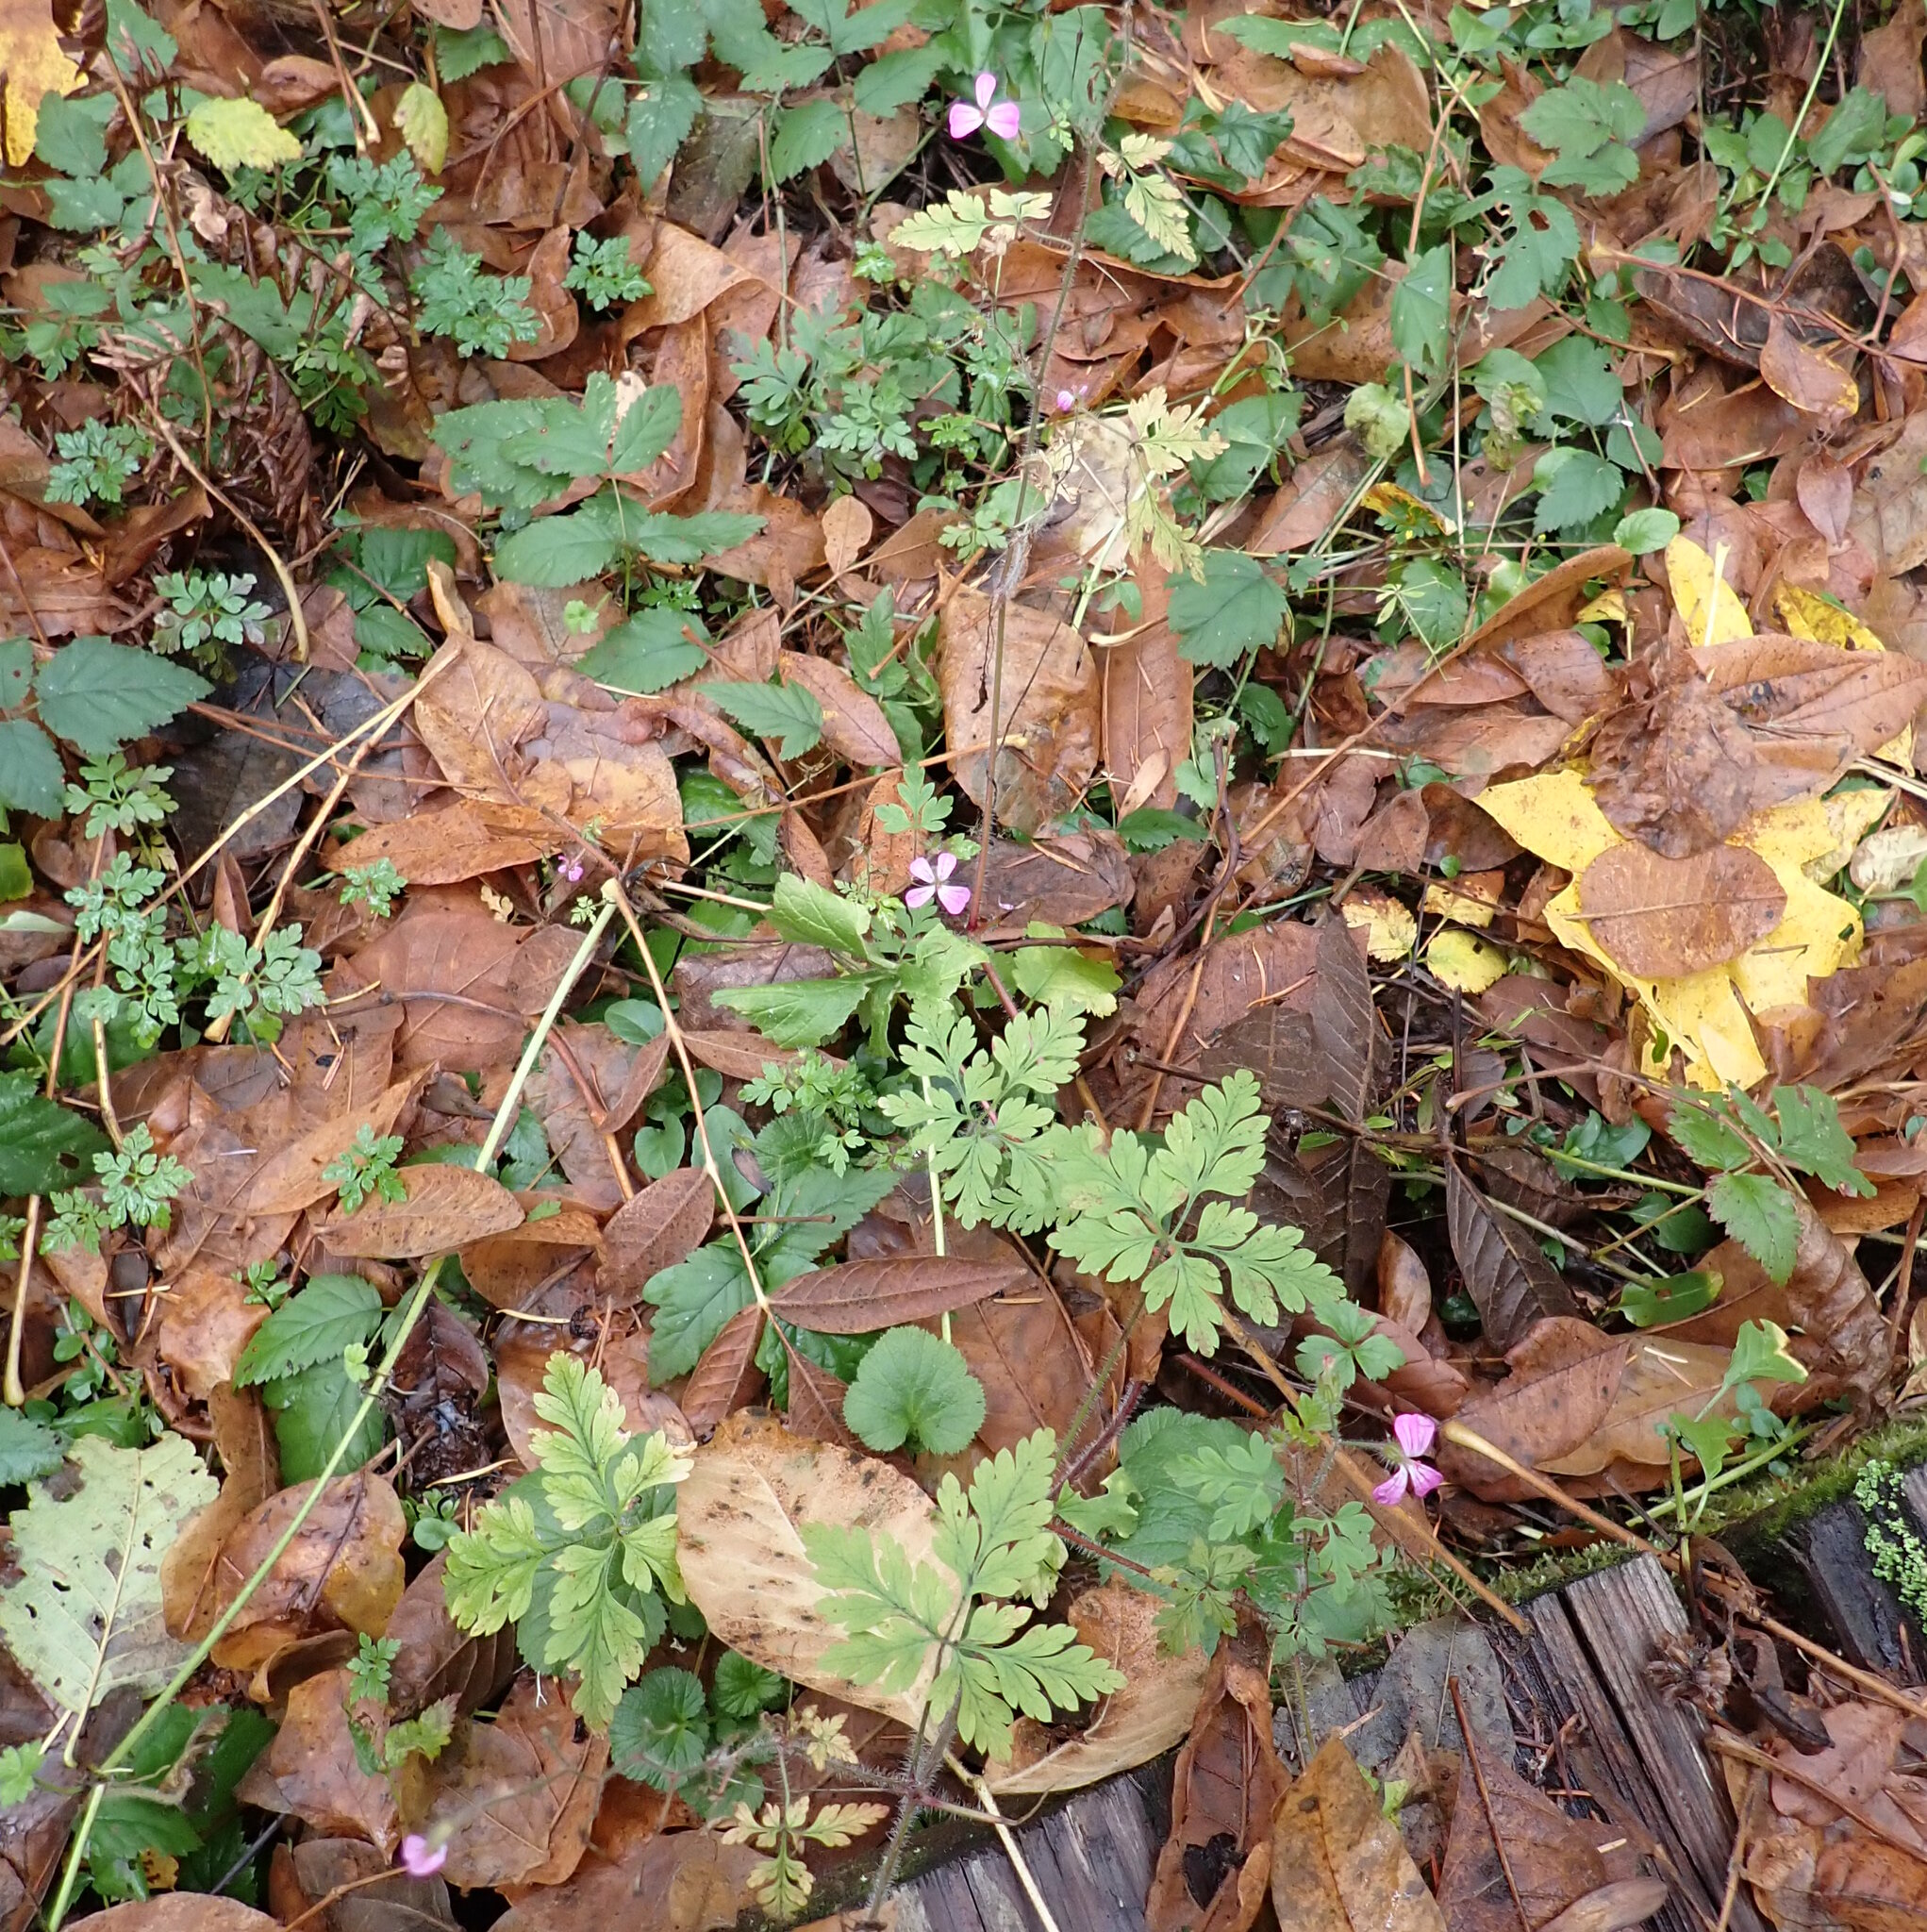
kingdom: Plantae
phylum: Tracheophyta
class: Magnoliopsida
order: Geraniales
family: Geraniaceae
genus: Geranium
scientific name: Geranium robertianum
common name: Herb-robert
